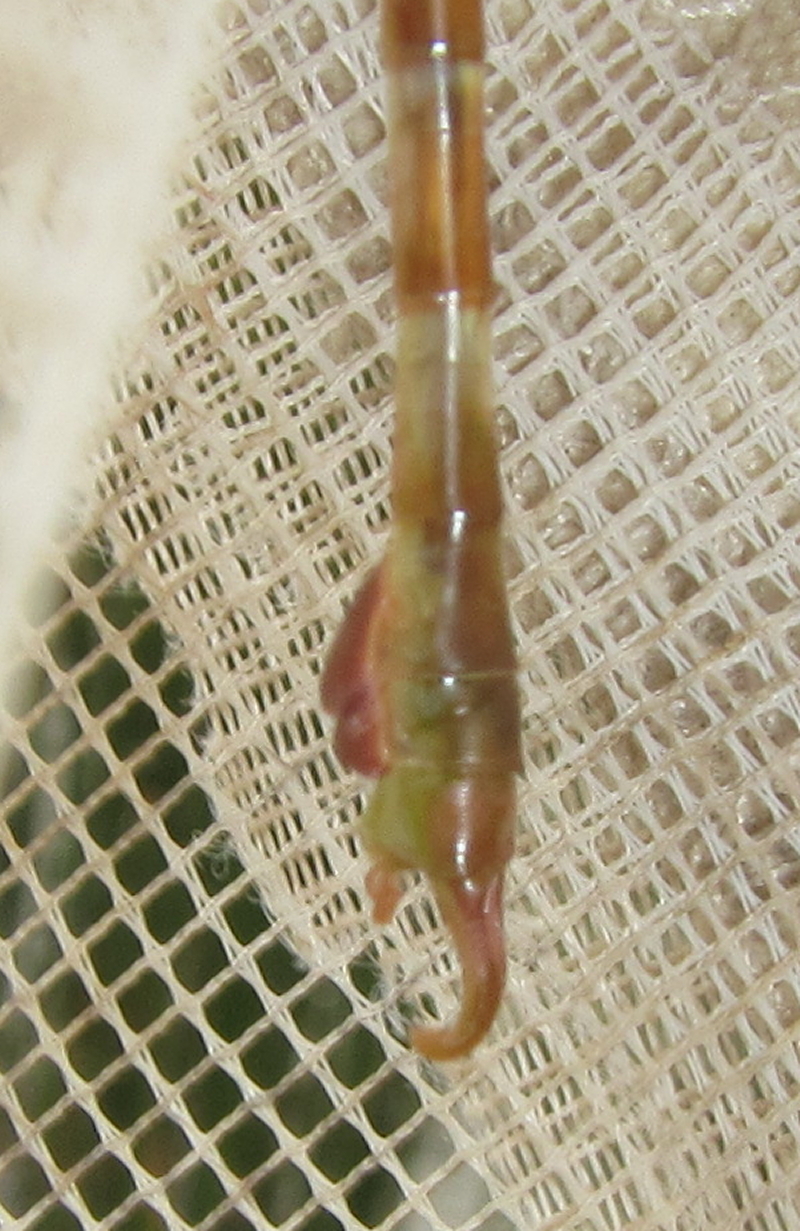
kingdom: Animalia
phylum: Arthropoda
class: Insecta
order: Odonata
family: Gomphidae
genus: Paragomphus
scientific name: Paragomphus elpidius
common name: Corkscrew hooktail
